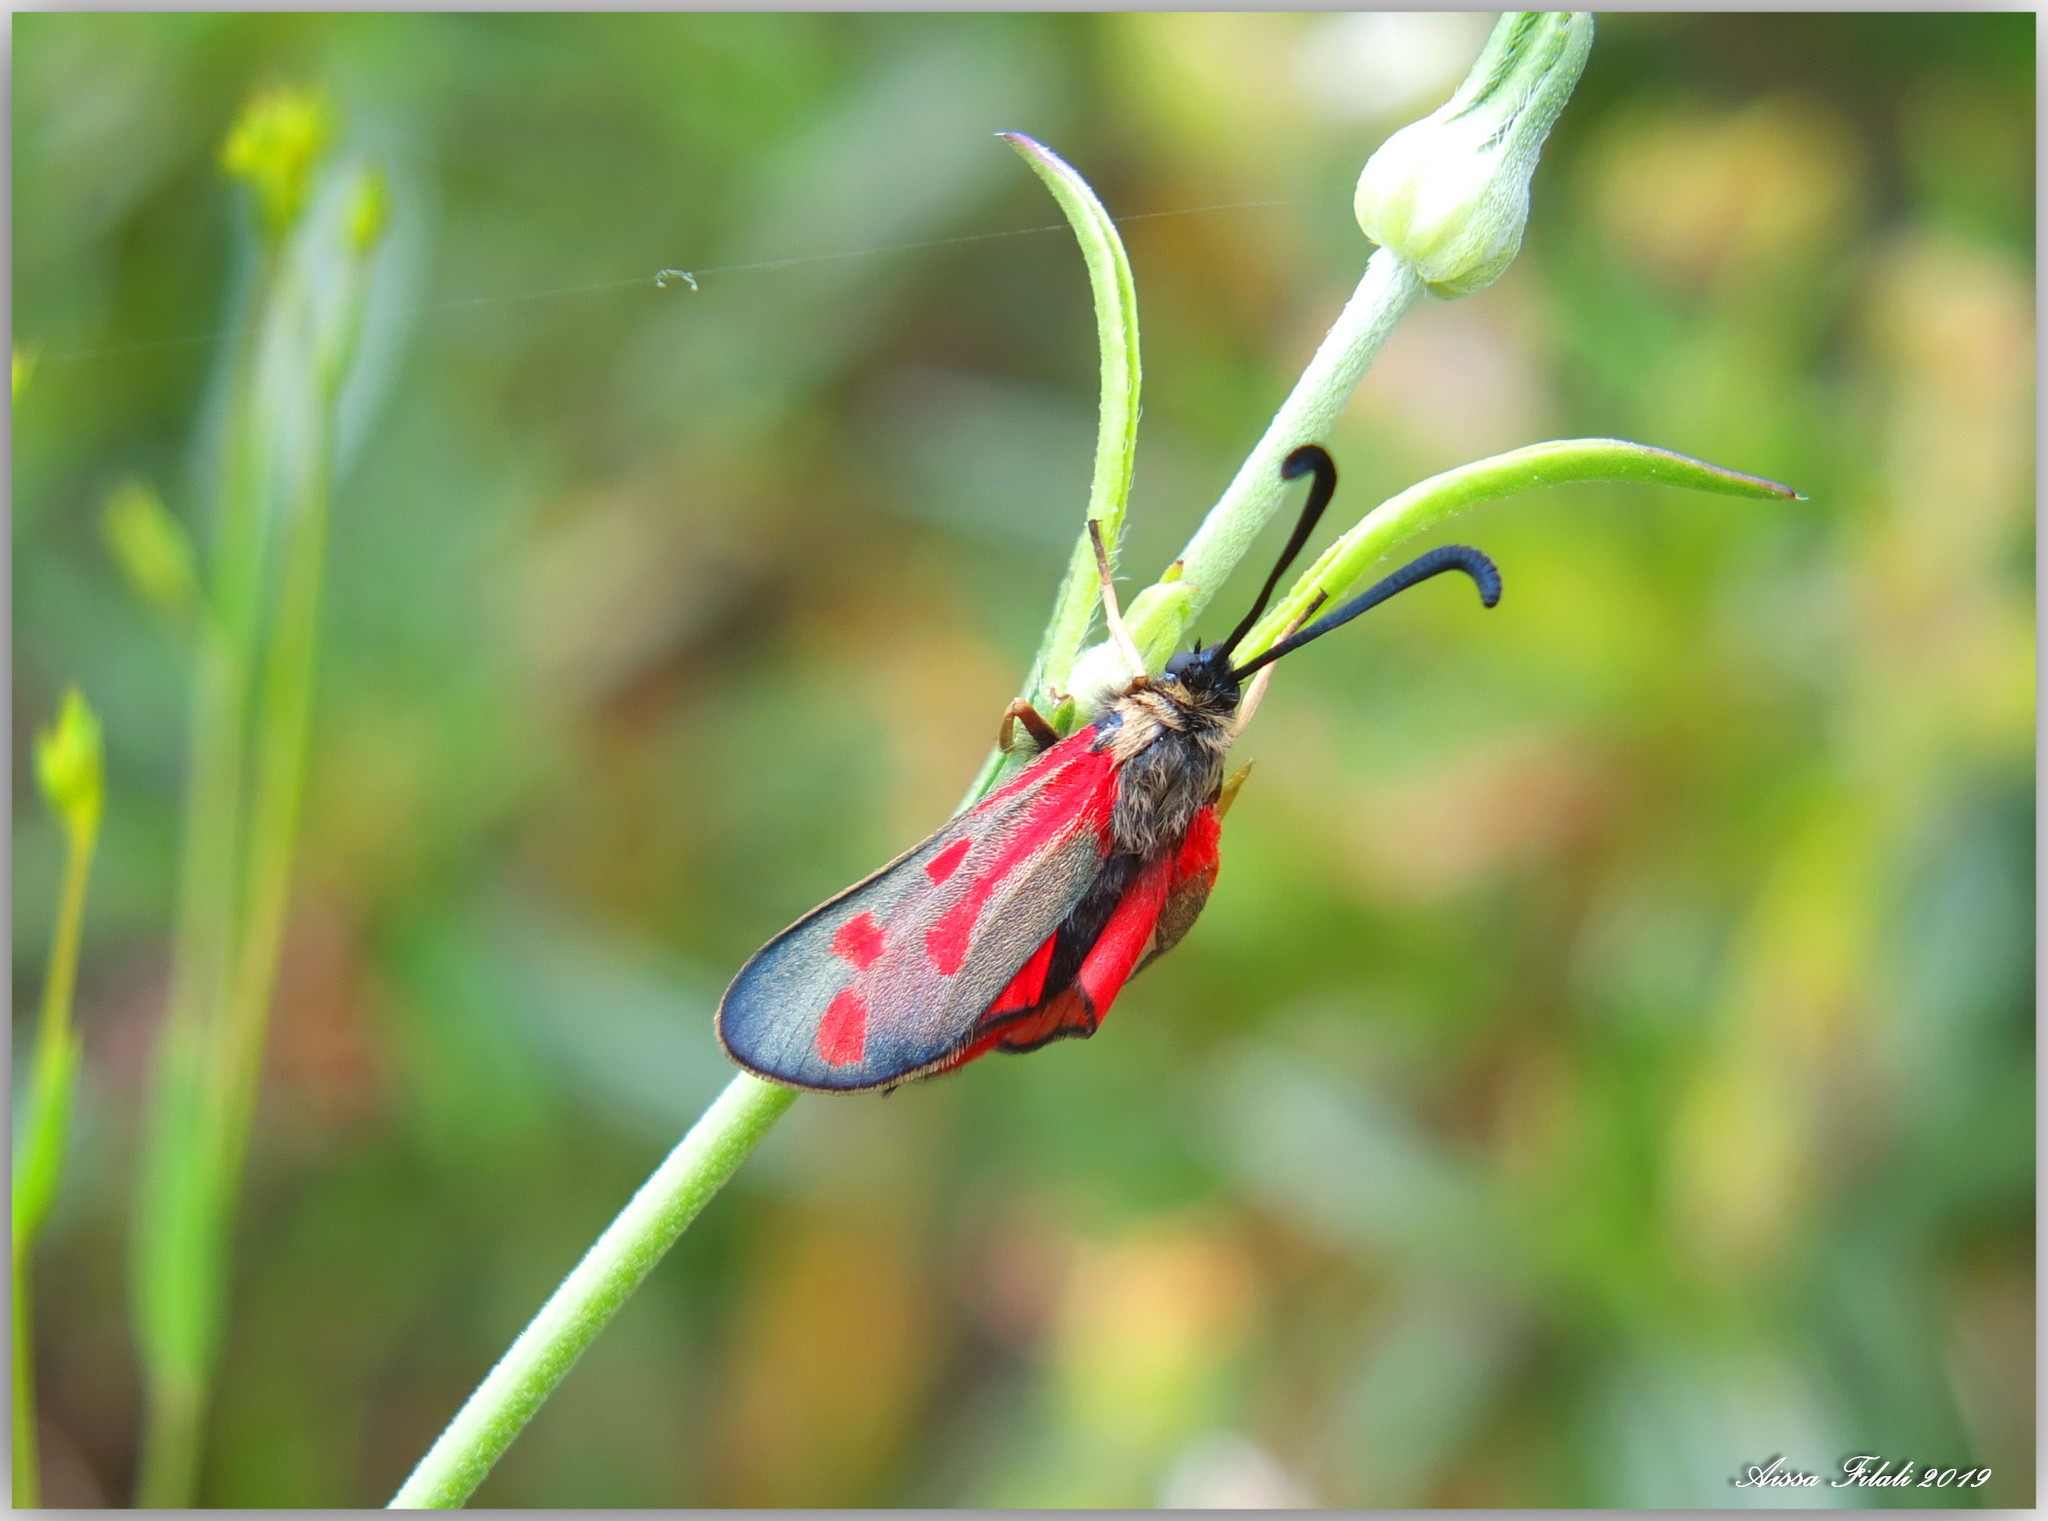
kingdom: Animalia
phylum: Arthropoda
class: Insecta
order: Lepidoptera
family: Zygaenidae
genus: Zygaena
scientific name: Zygaena favonia
